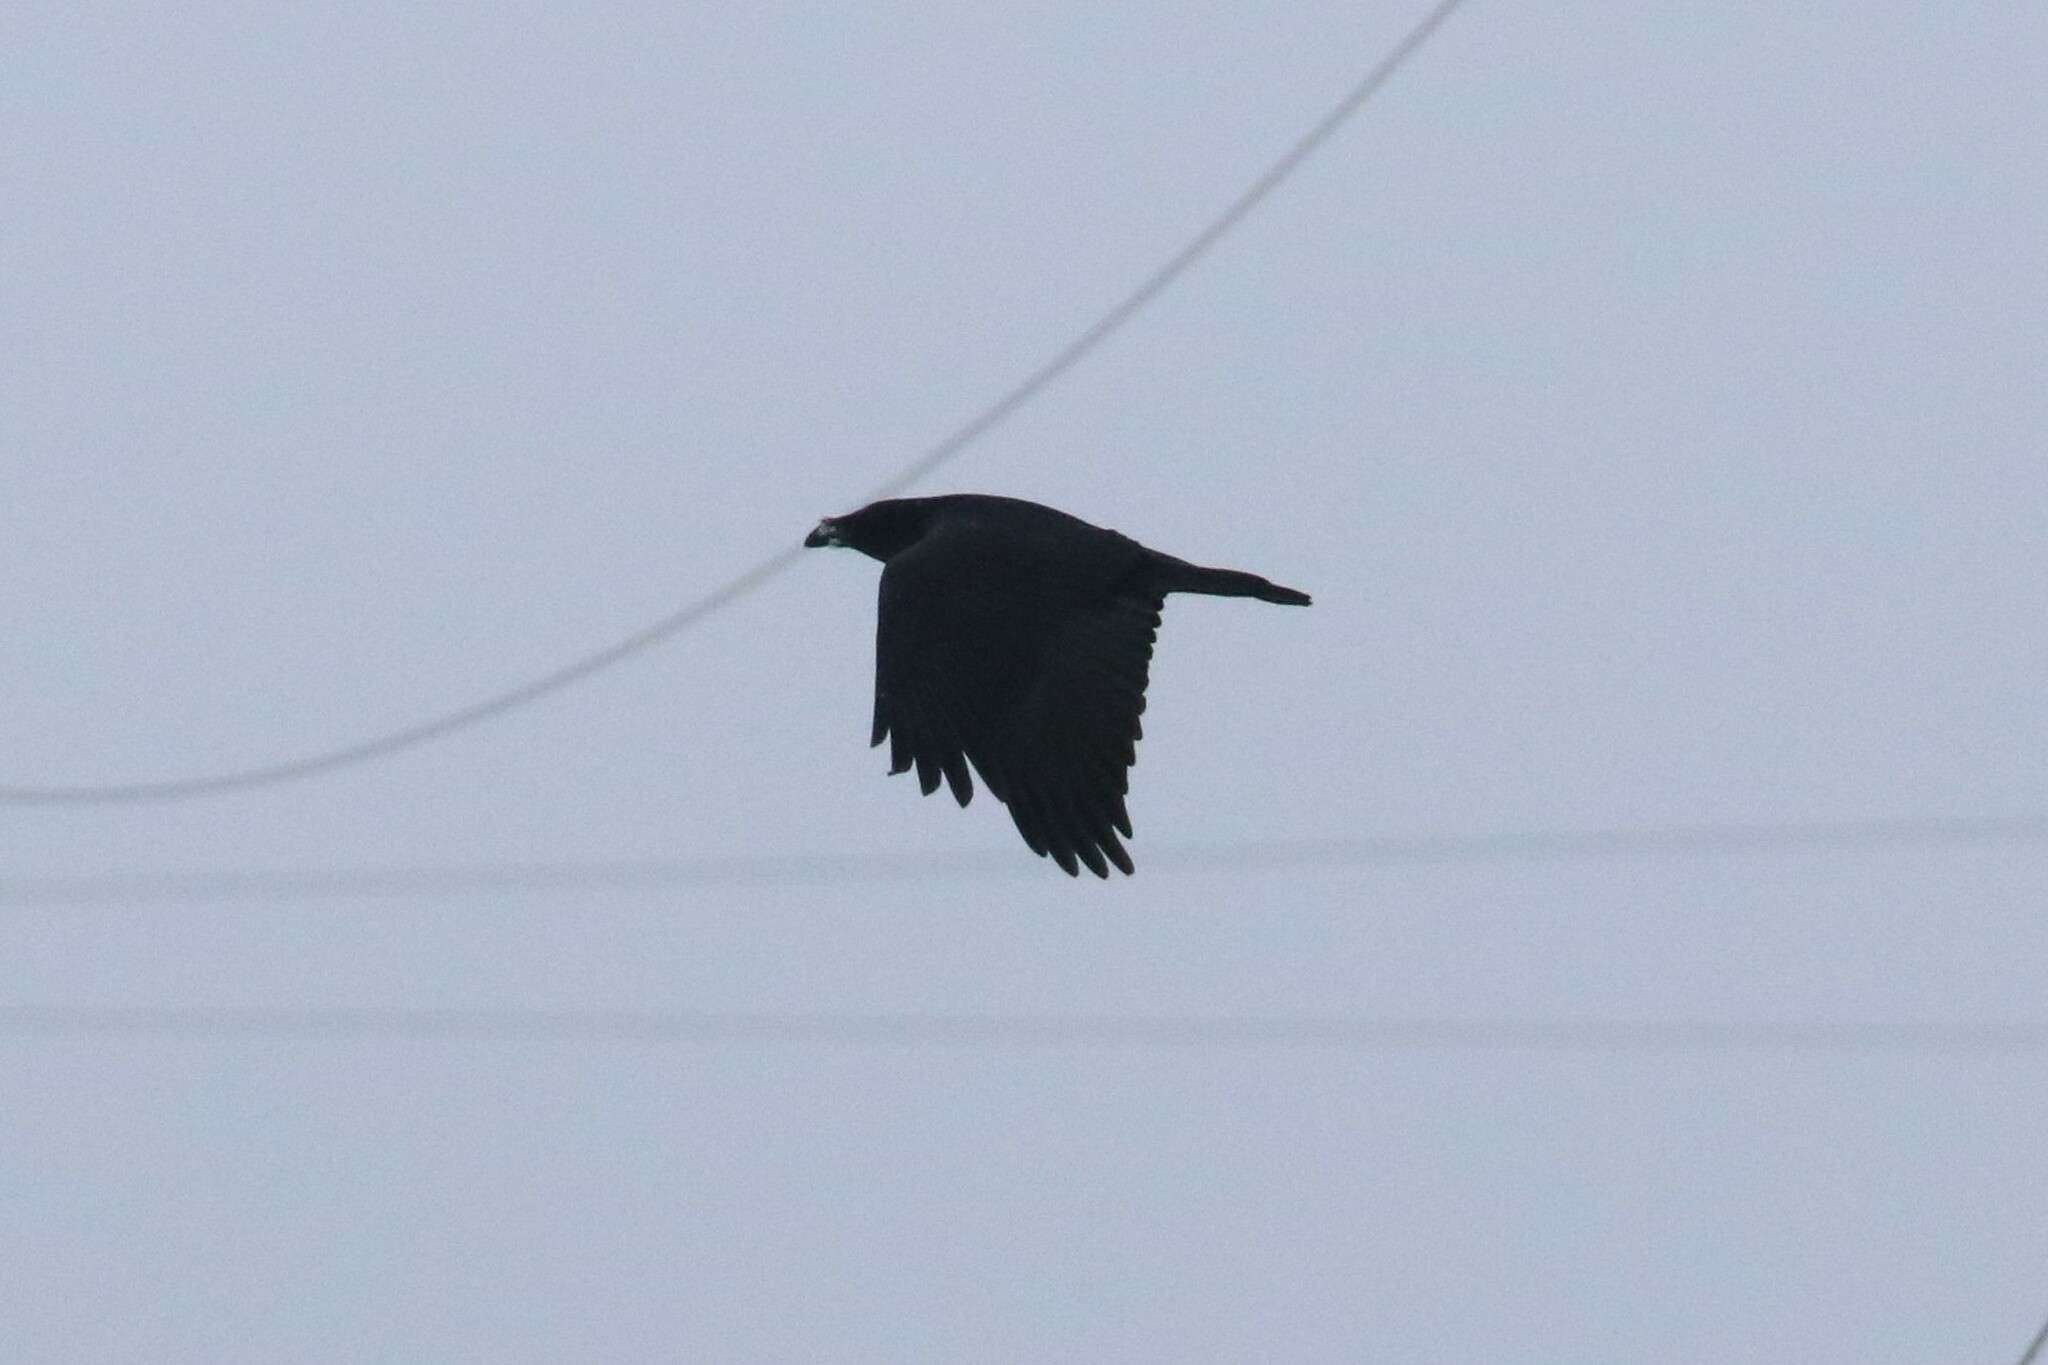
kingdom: Animalia
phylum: Chordata
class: Aves
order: Passeriformes
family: Corvidae
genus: Corvus
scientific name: Corvus corax
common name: Common raven
